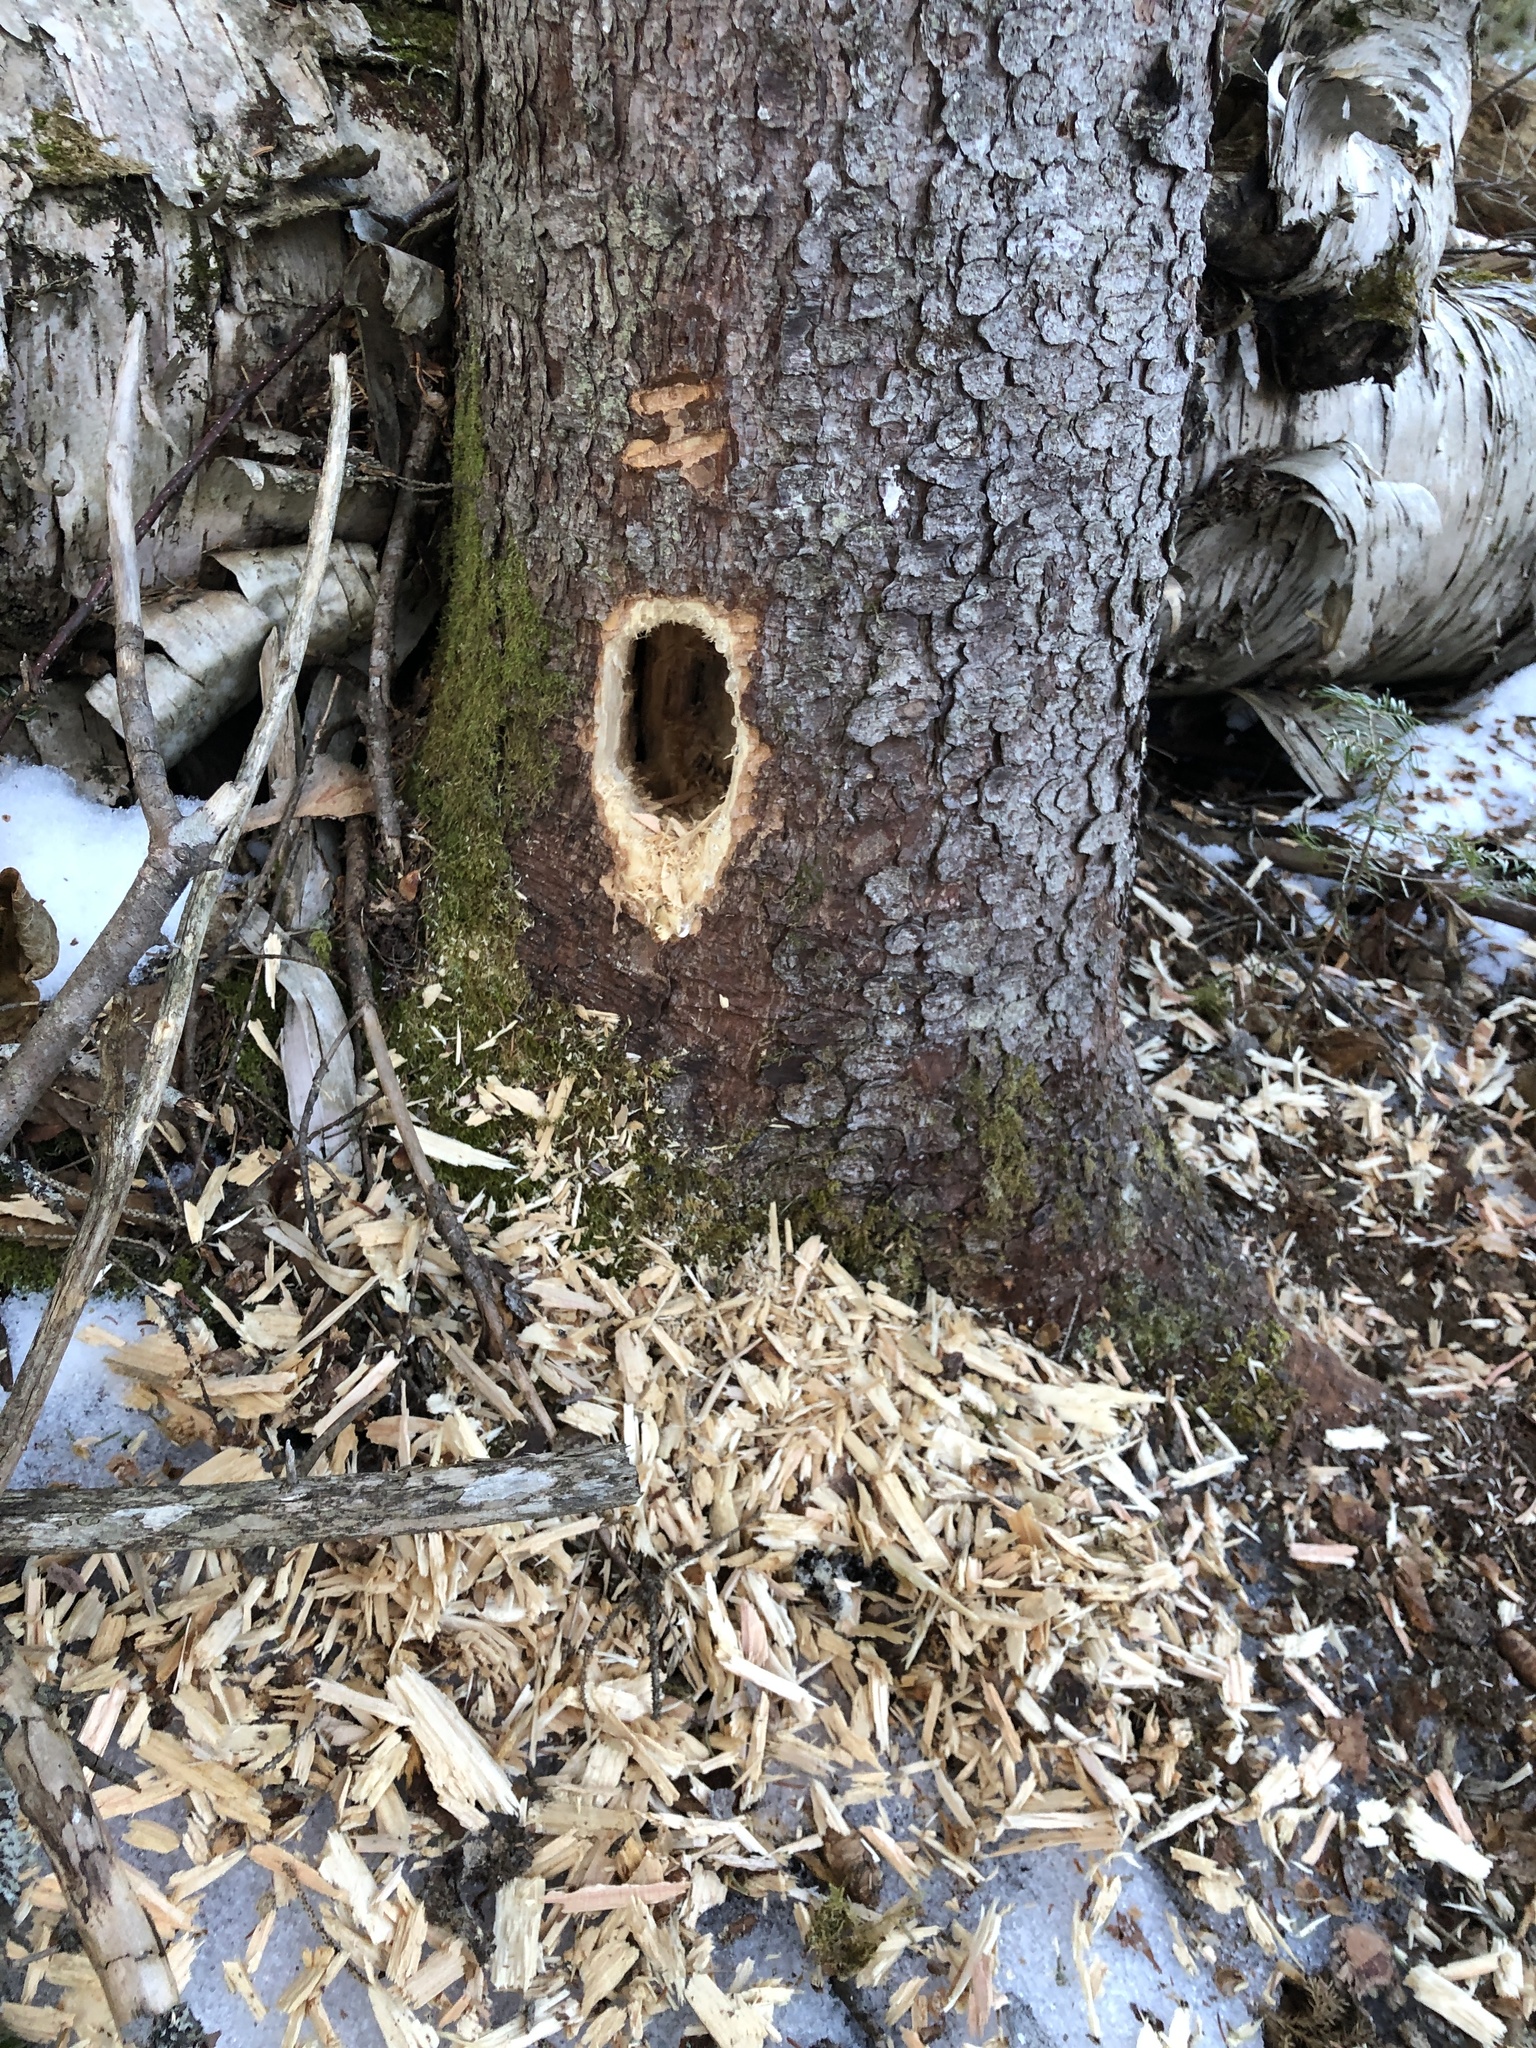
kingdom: Animalia
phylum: Chordata
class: Aves
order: Piciformes
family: Picidae
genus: Dryocopus
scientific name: Dryocopus pileatus
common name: Pileated woodpecker
